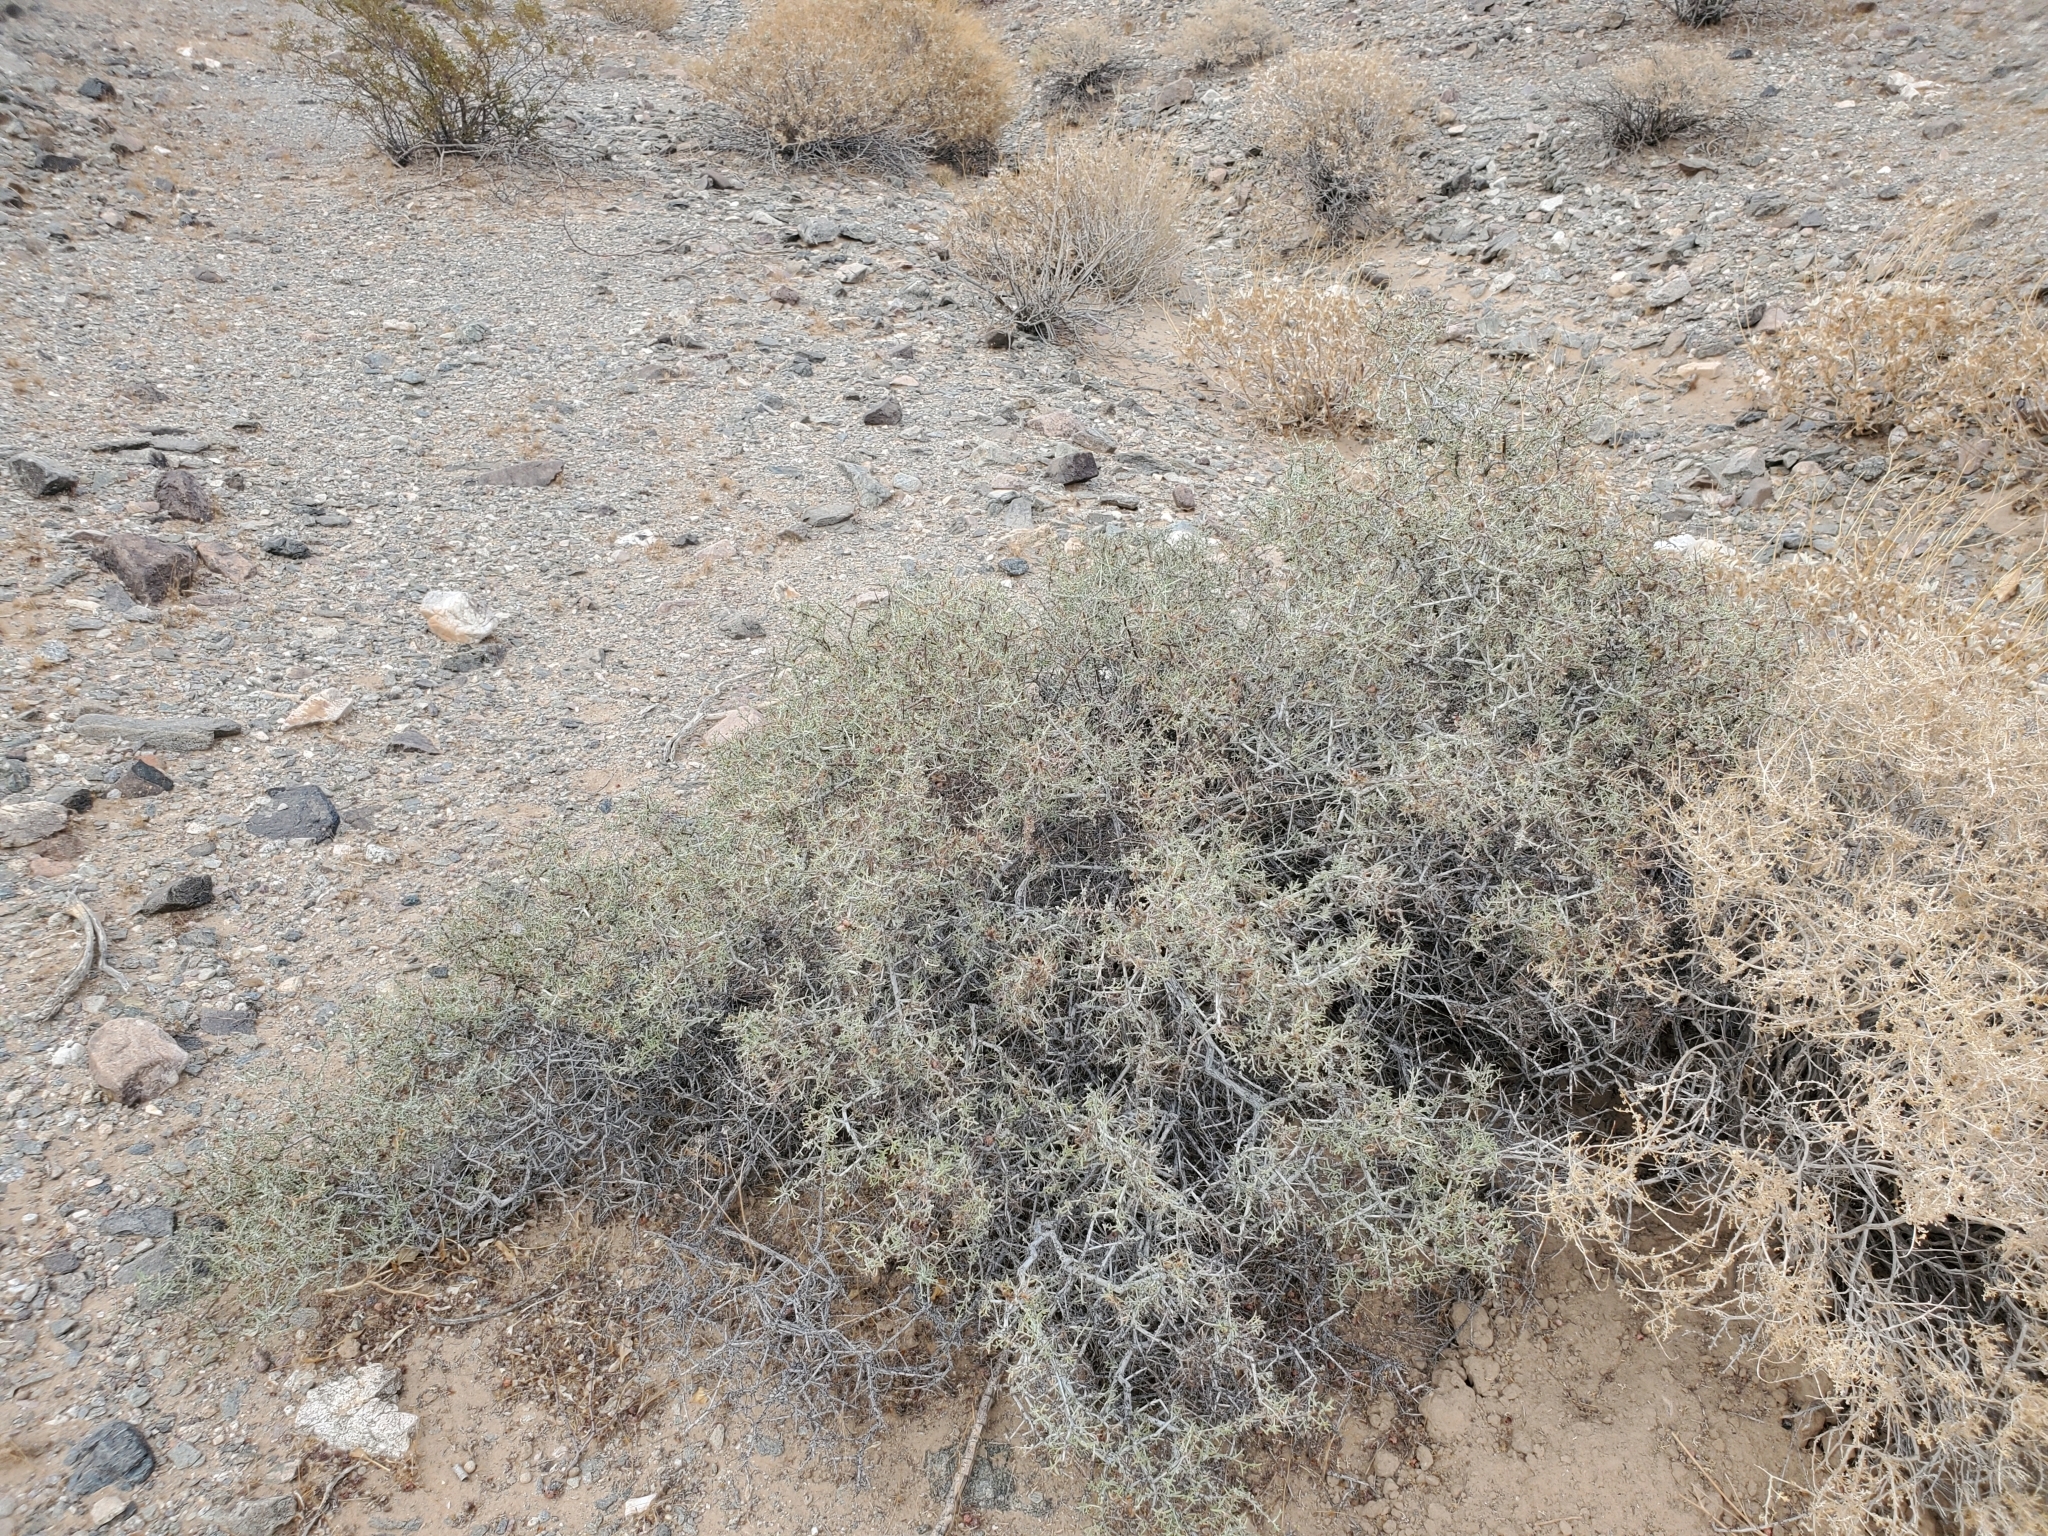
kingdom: Plantae
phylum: Tracheophyta
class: Magnoliopsida
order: Zygophyllales
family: Krameriaceae
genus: Krameria
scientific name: Krameria erecta
